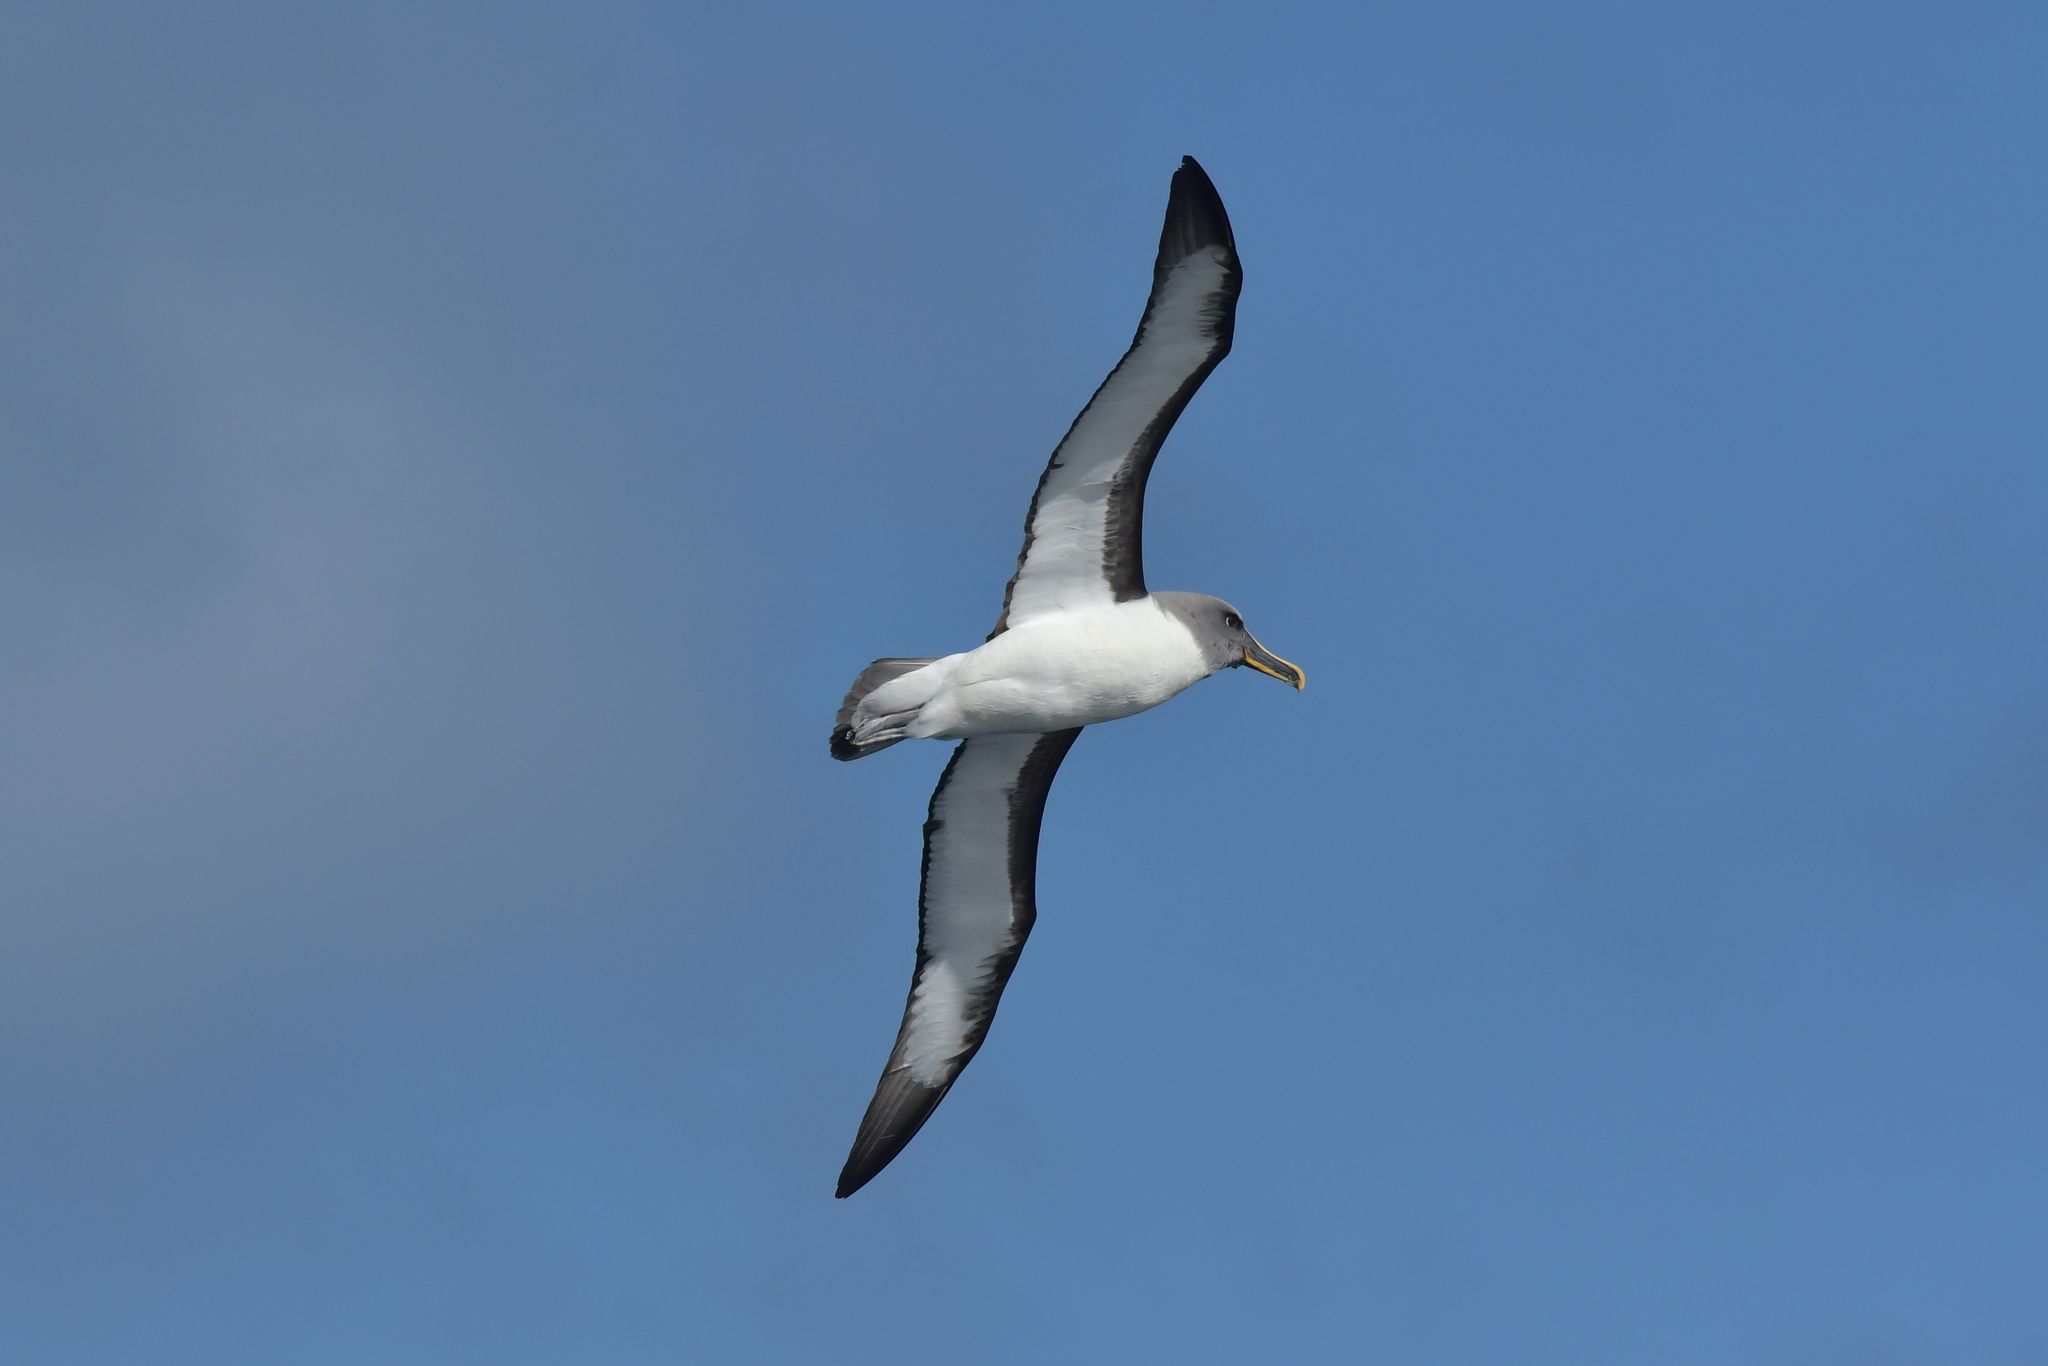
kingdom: Animalia
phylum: Chordata
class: Aves
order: Procellariiformes
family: Diomedeidae
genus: Thalassarche
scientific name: Thalassarche bulleri
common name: Buller's albatross
